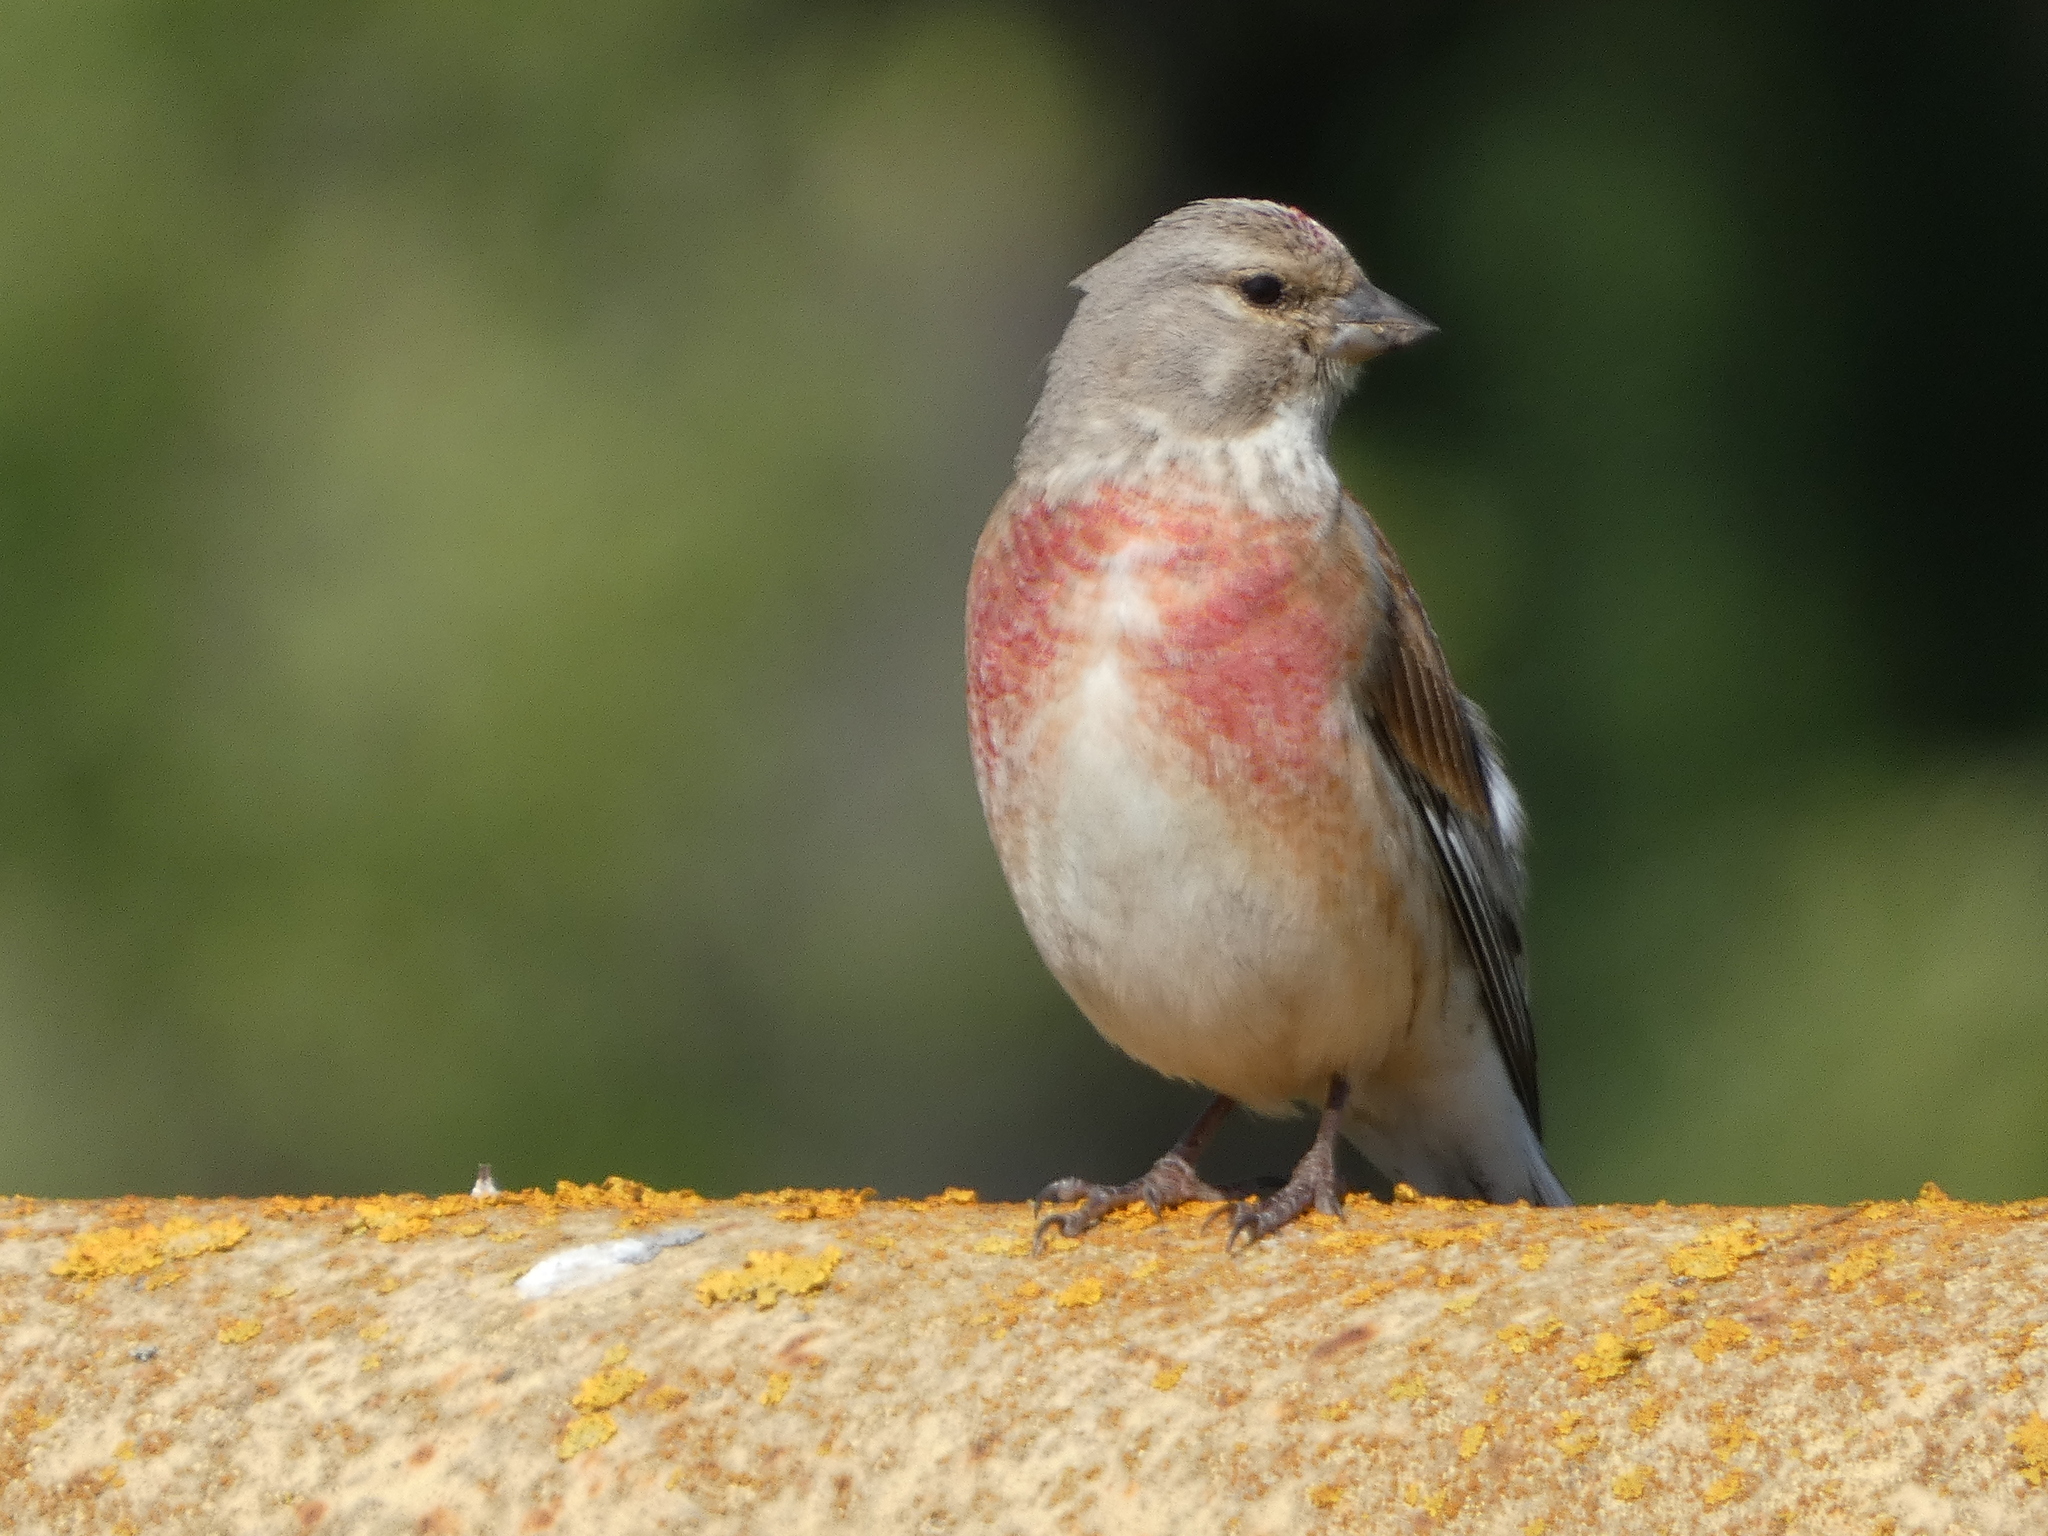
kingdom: Animalia
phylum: Chordata
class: Aves
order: Passeriformes
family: Fringillidae
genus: Linaria
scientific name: Linaria cannabina
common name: Common linnet
